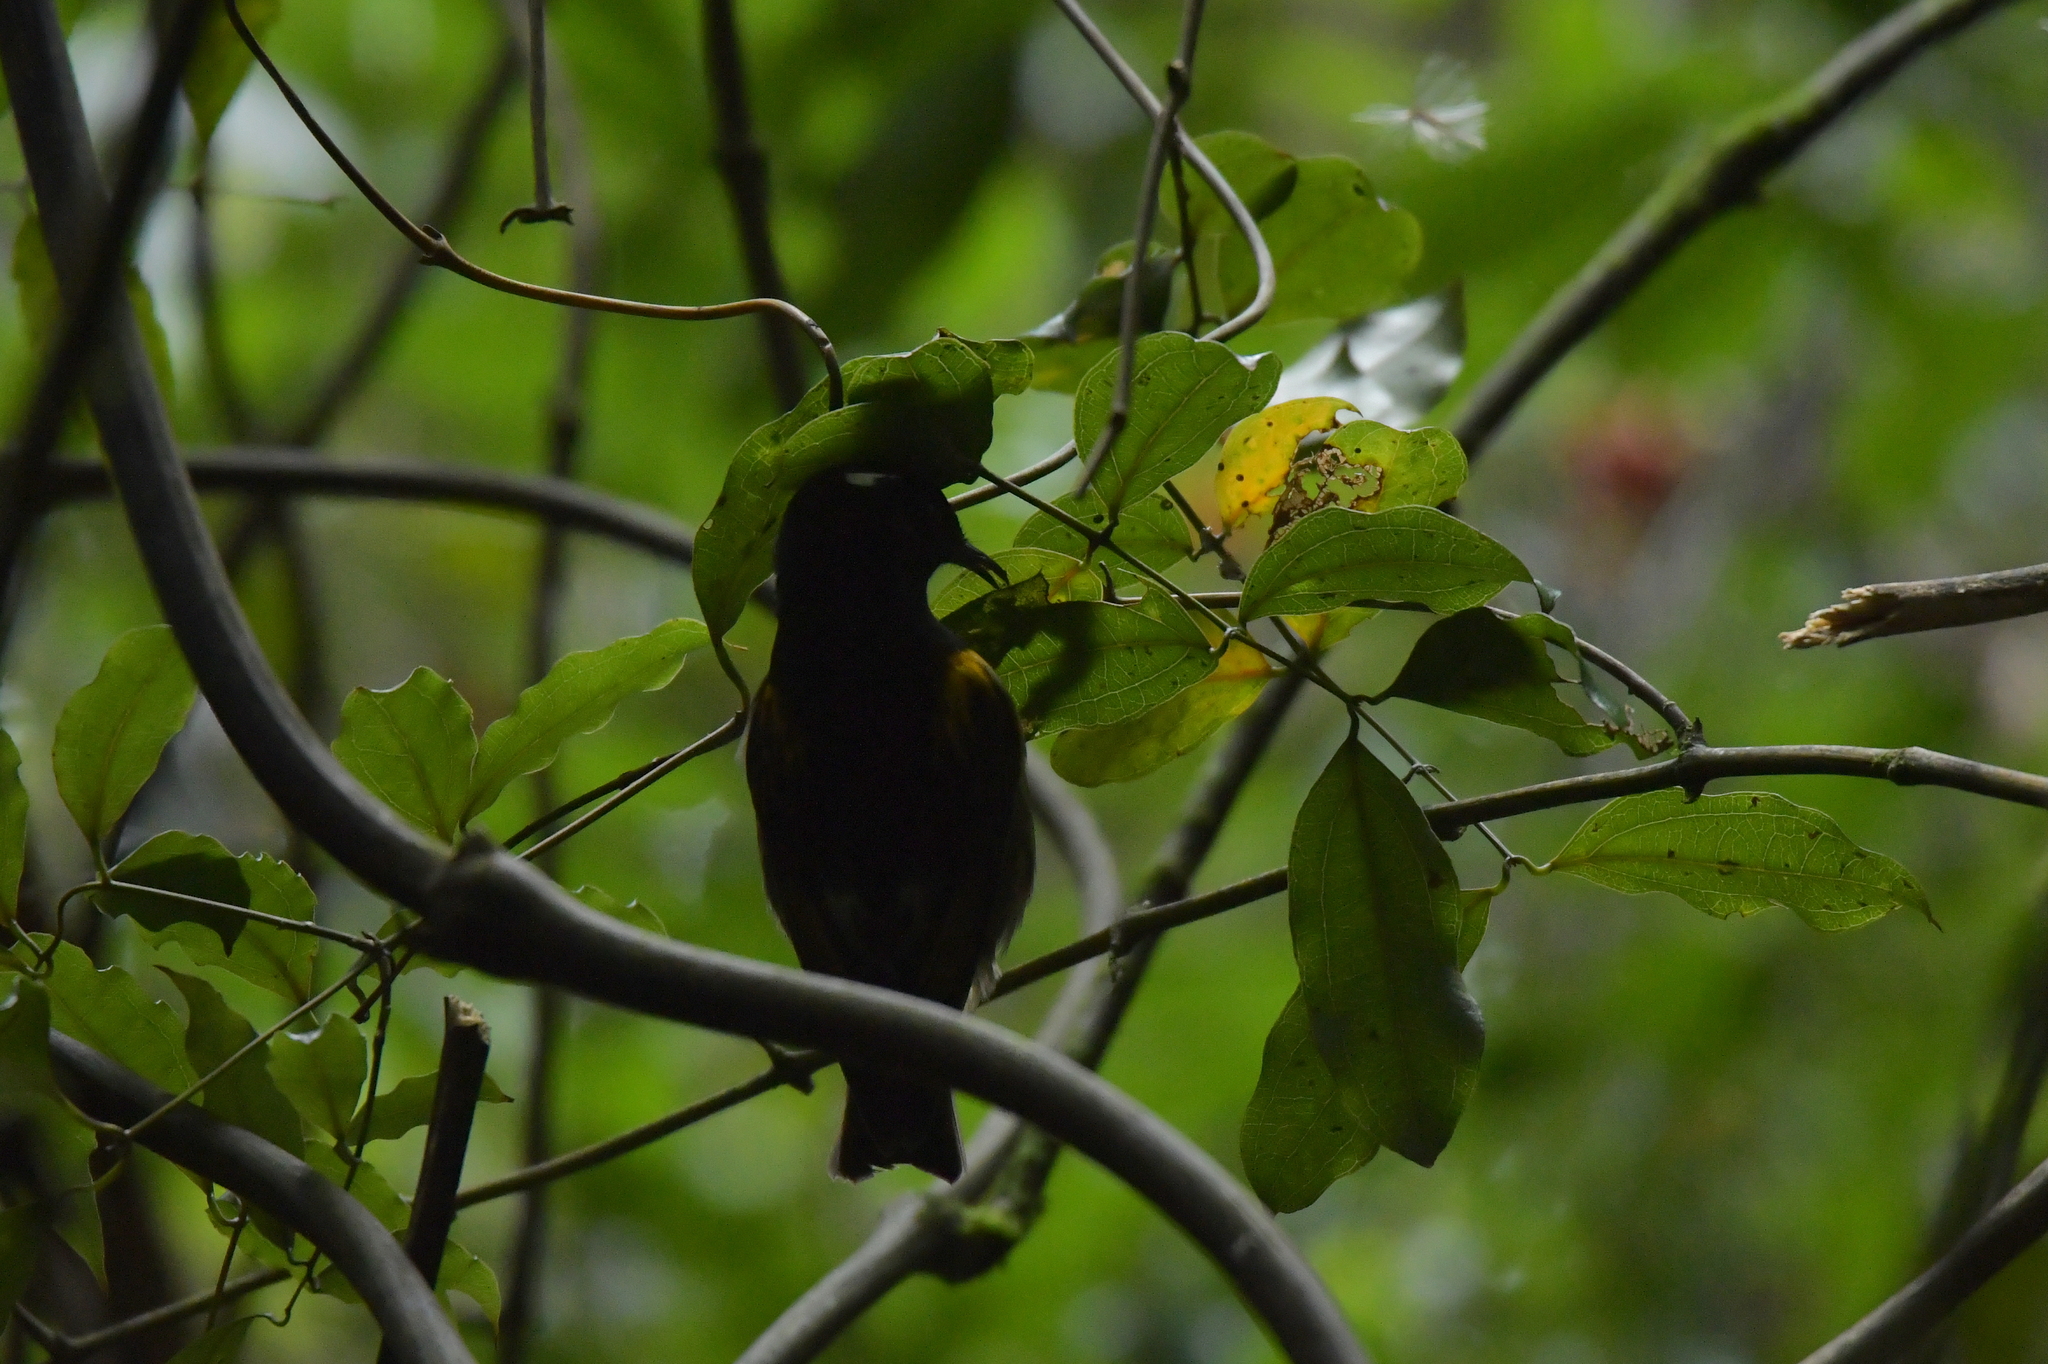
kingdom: Animalia
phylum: Chordata
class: Aves
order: Passeriformes
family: Notiomystidae
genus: Notiomystis
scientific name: Notiomystis cincta
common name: Stitchbird
